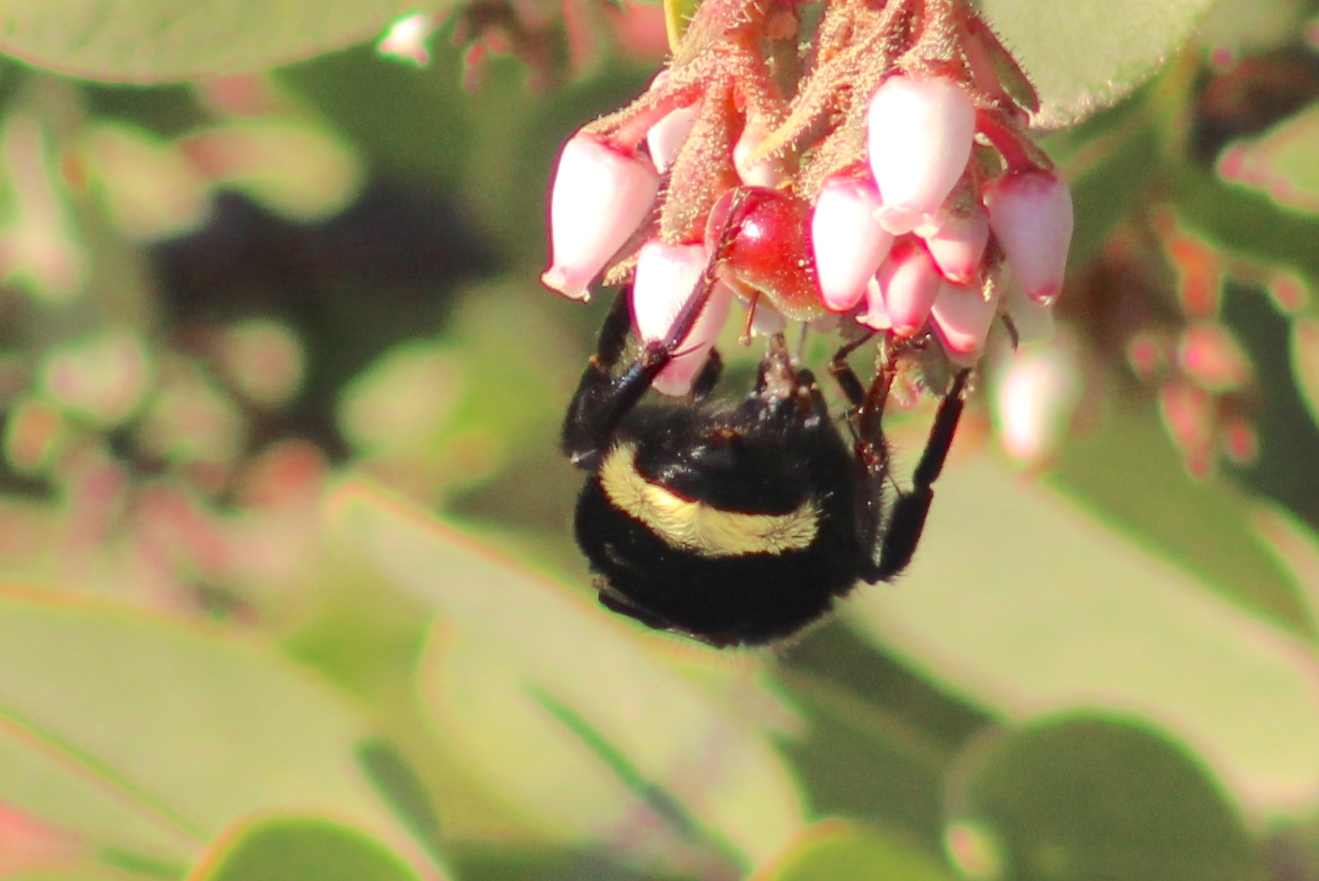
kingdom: Animalia
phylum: Arthropoda
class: Insecta
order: Hymenoptera
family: Apidae
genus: Bombus
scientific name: Bombus vosnesenskii
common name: Vosnesensky bumble bee
